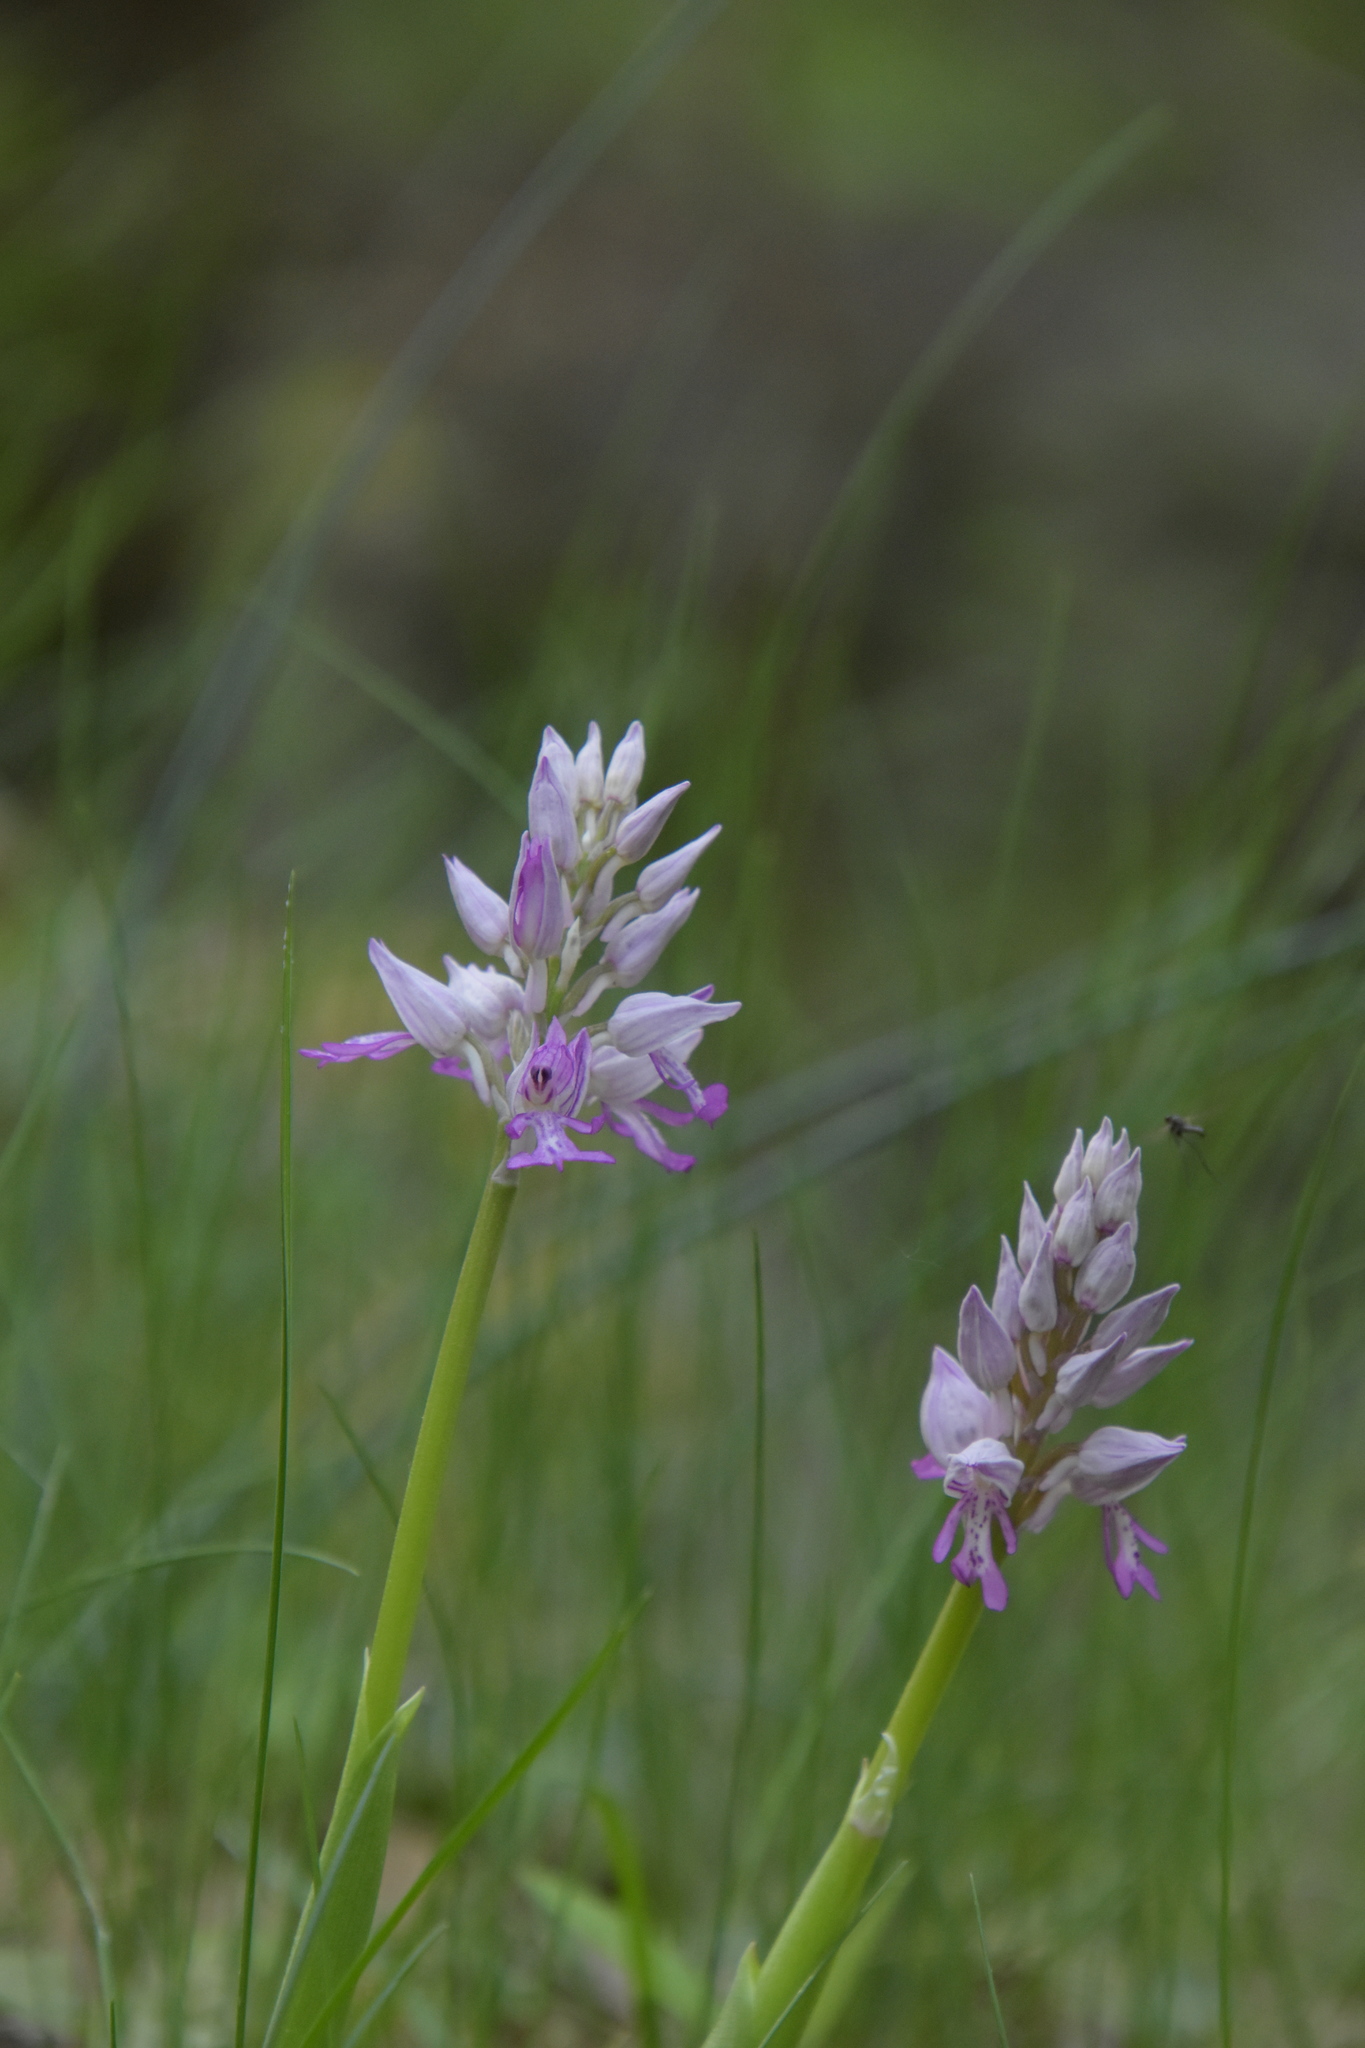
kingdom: Plantae
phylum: Tracheophyta
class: Liliopsida
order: Asparagales
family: Orchidaceae
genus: Orchis
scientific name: Orchis militaris
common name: Military orchid
